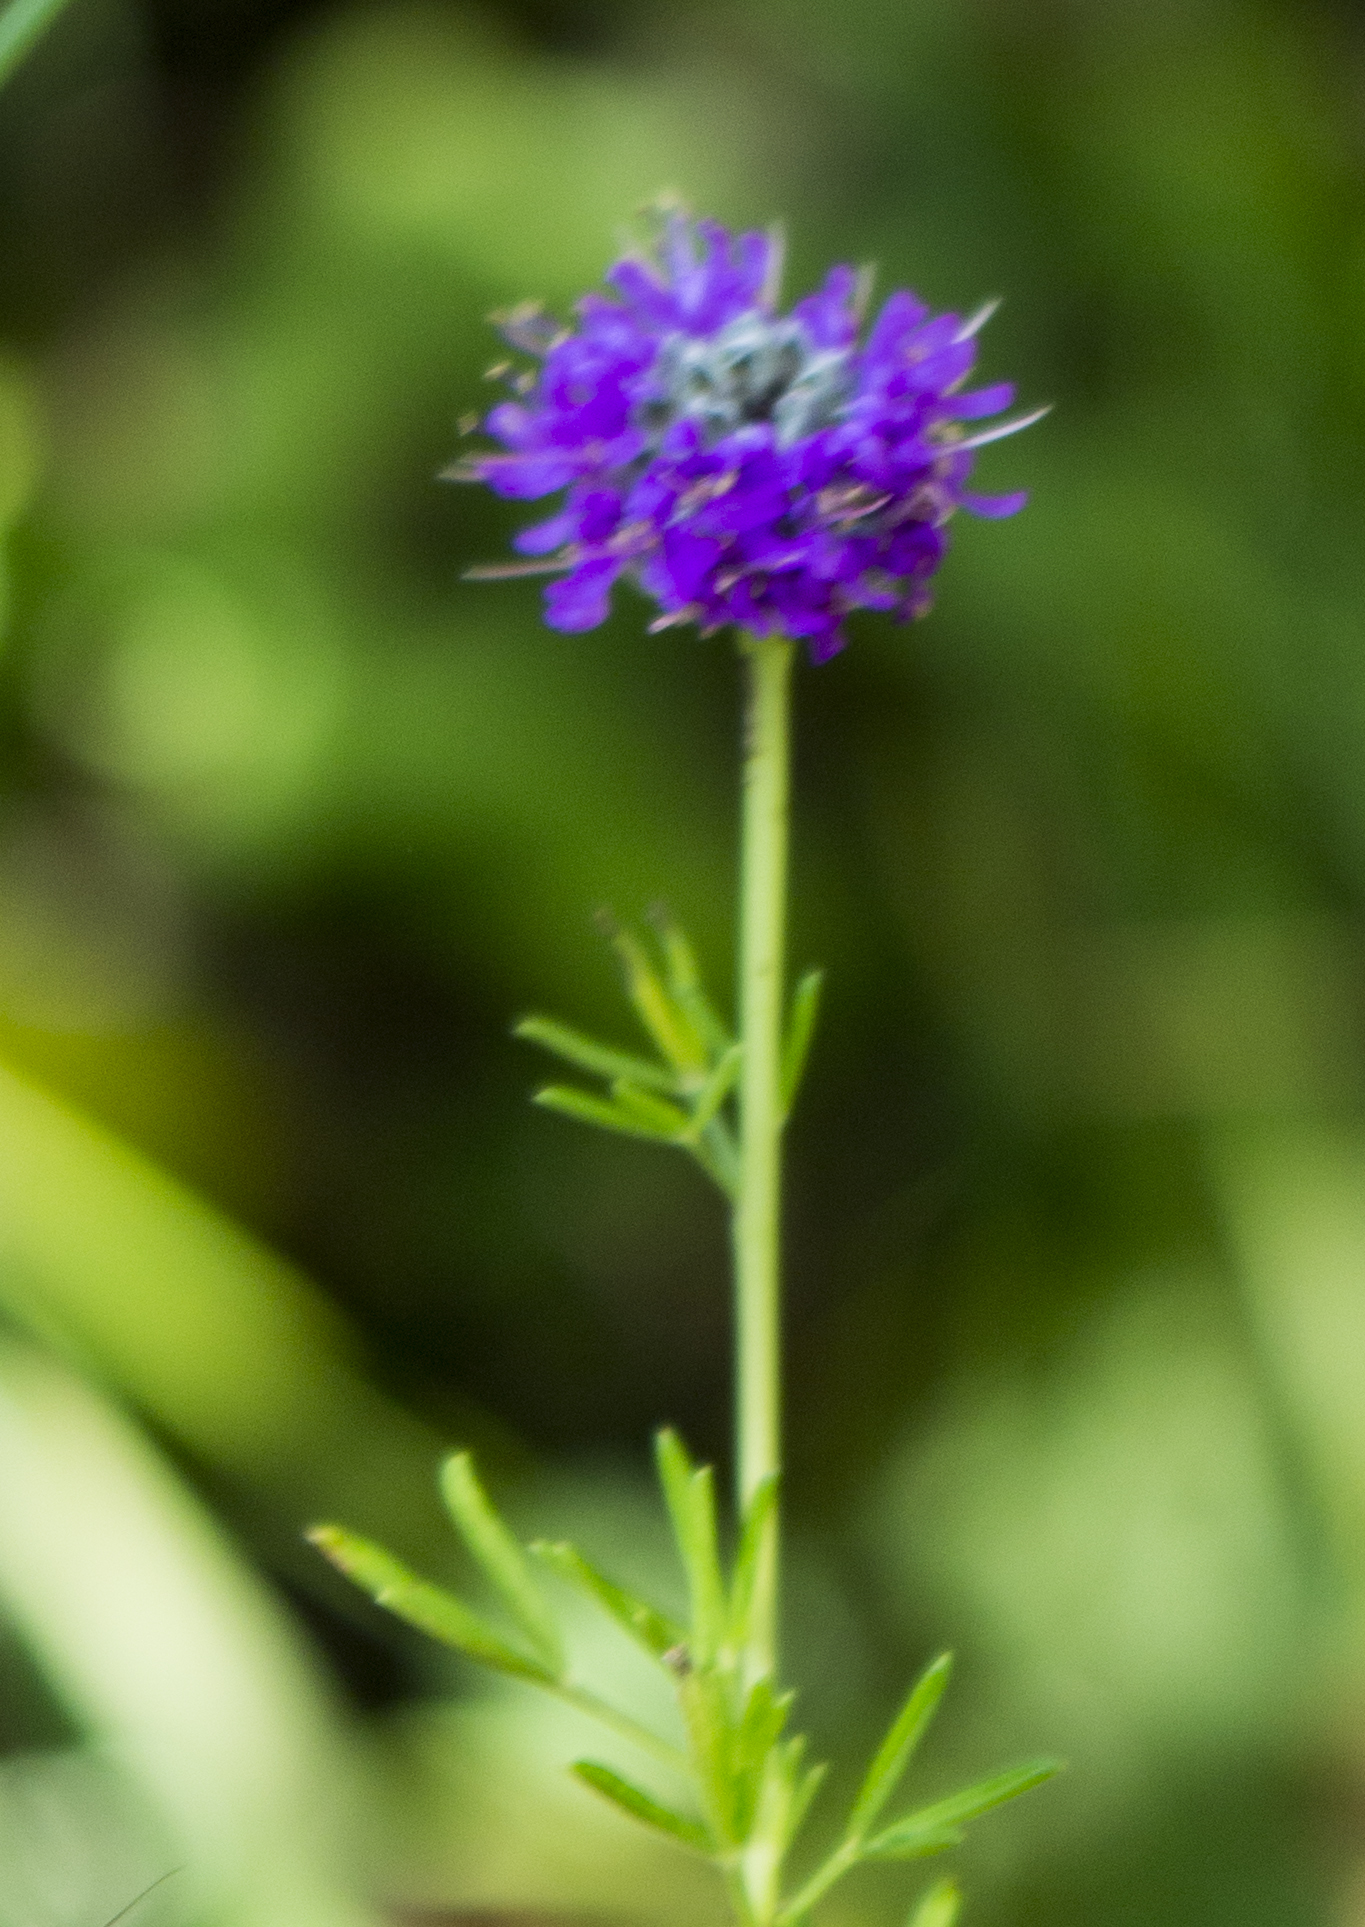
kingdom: Plantae
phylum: Tracheophyta
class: Magnoliopsida
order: Fabales
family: Fabaceae
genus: Dalea
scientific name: Dalea purpurea
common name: Purple prairie-clover
